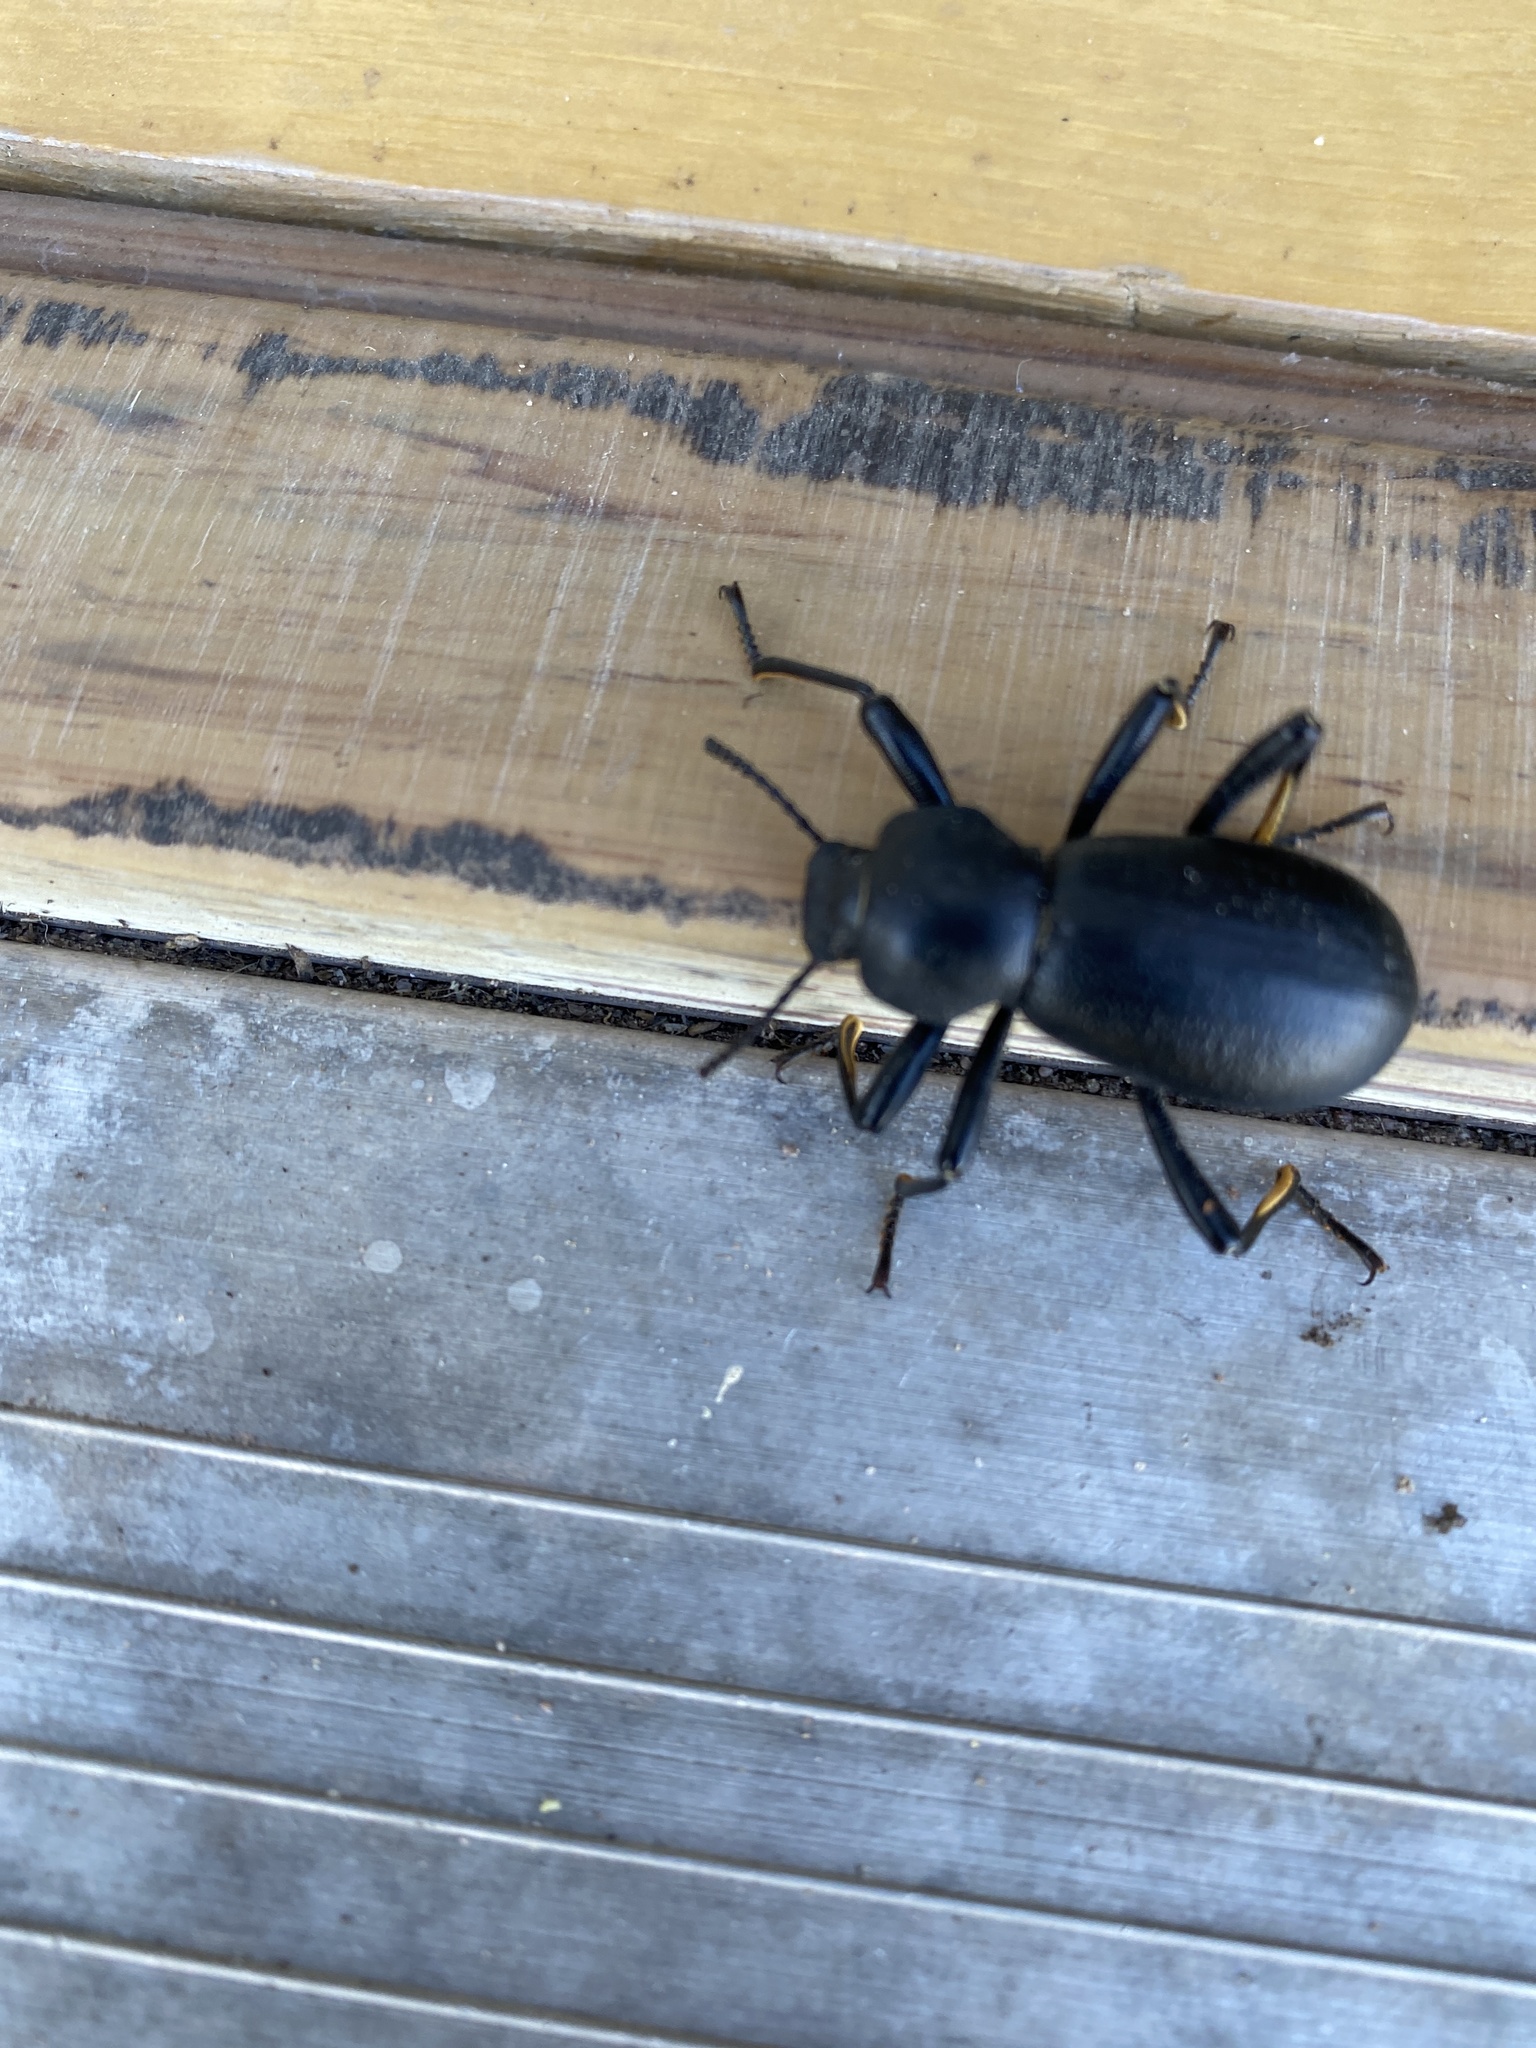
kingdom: Animalia
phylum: Arthropoda
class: Insecta
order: Coleoptera
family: Tenebrionidae
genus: Coelocnemis
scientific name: Coelocnemis dilaticollis
